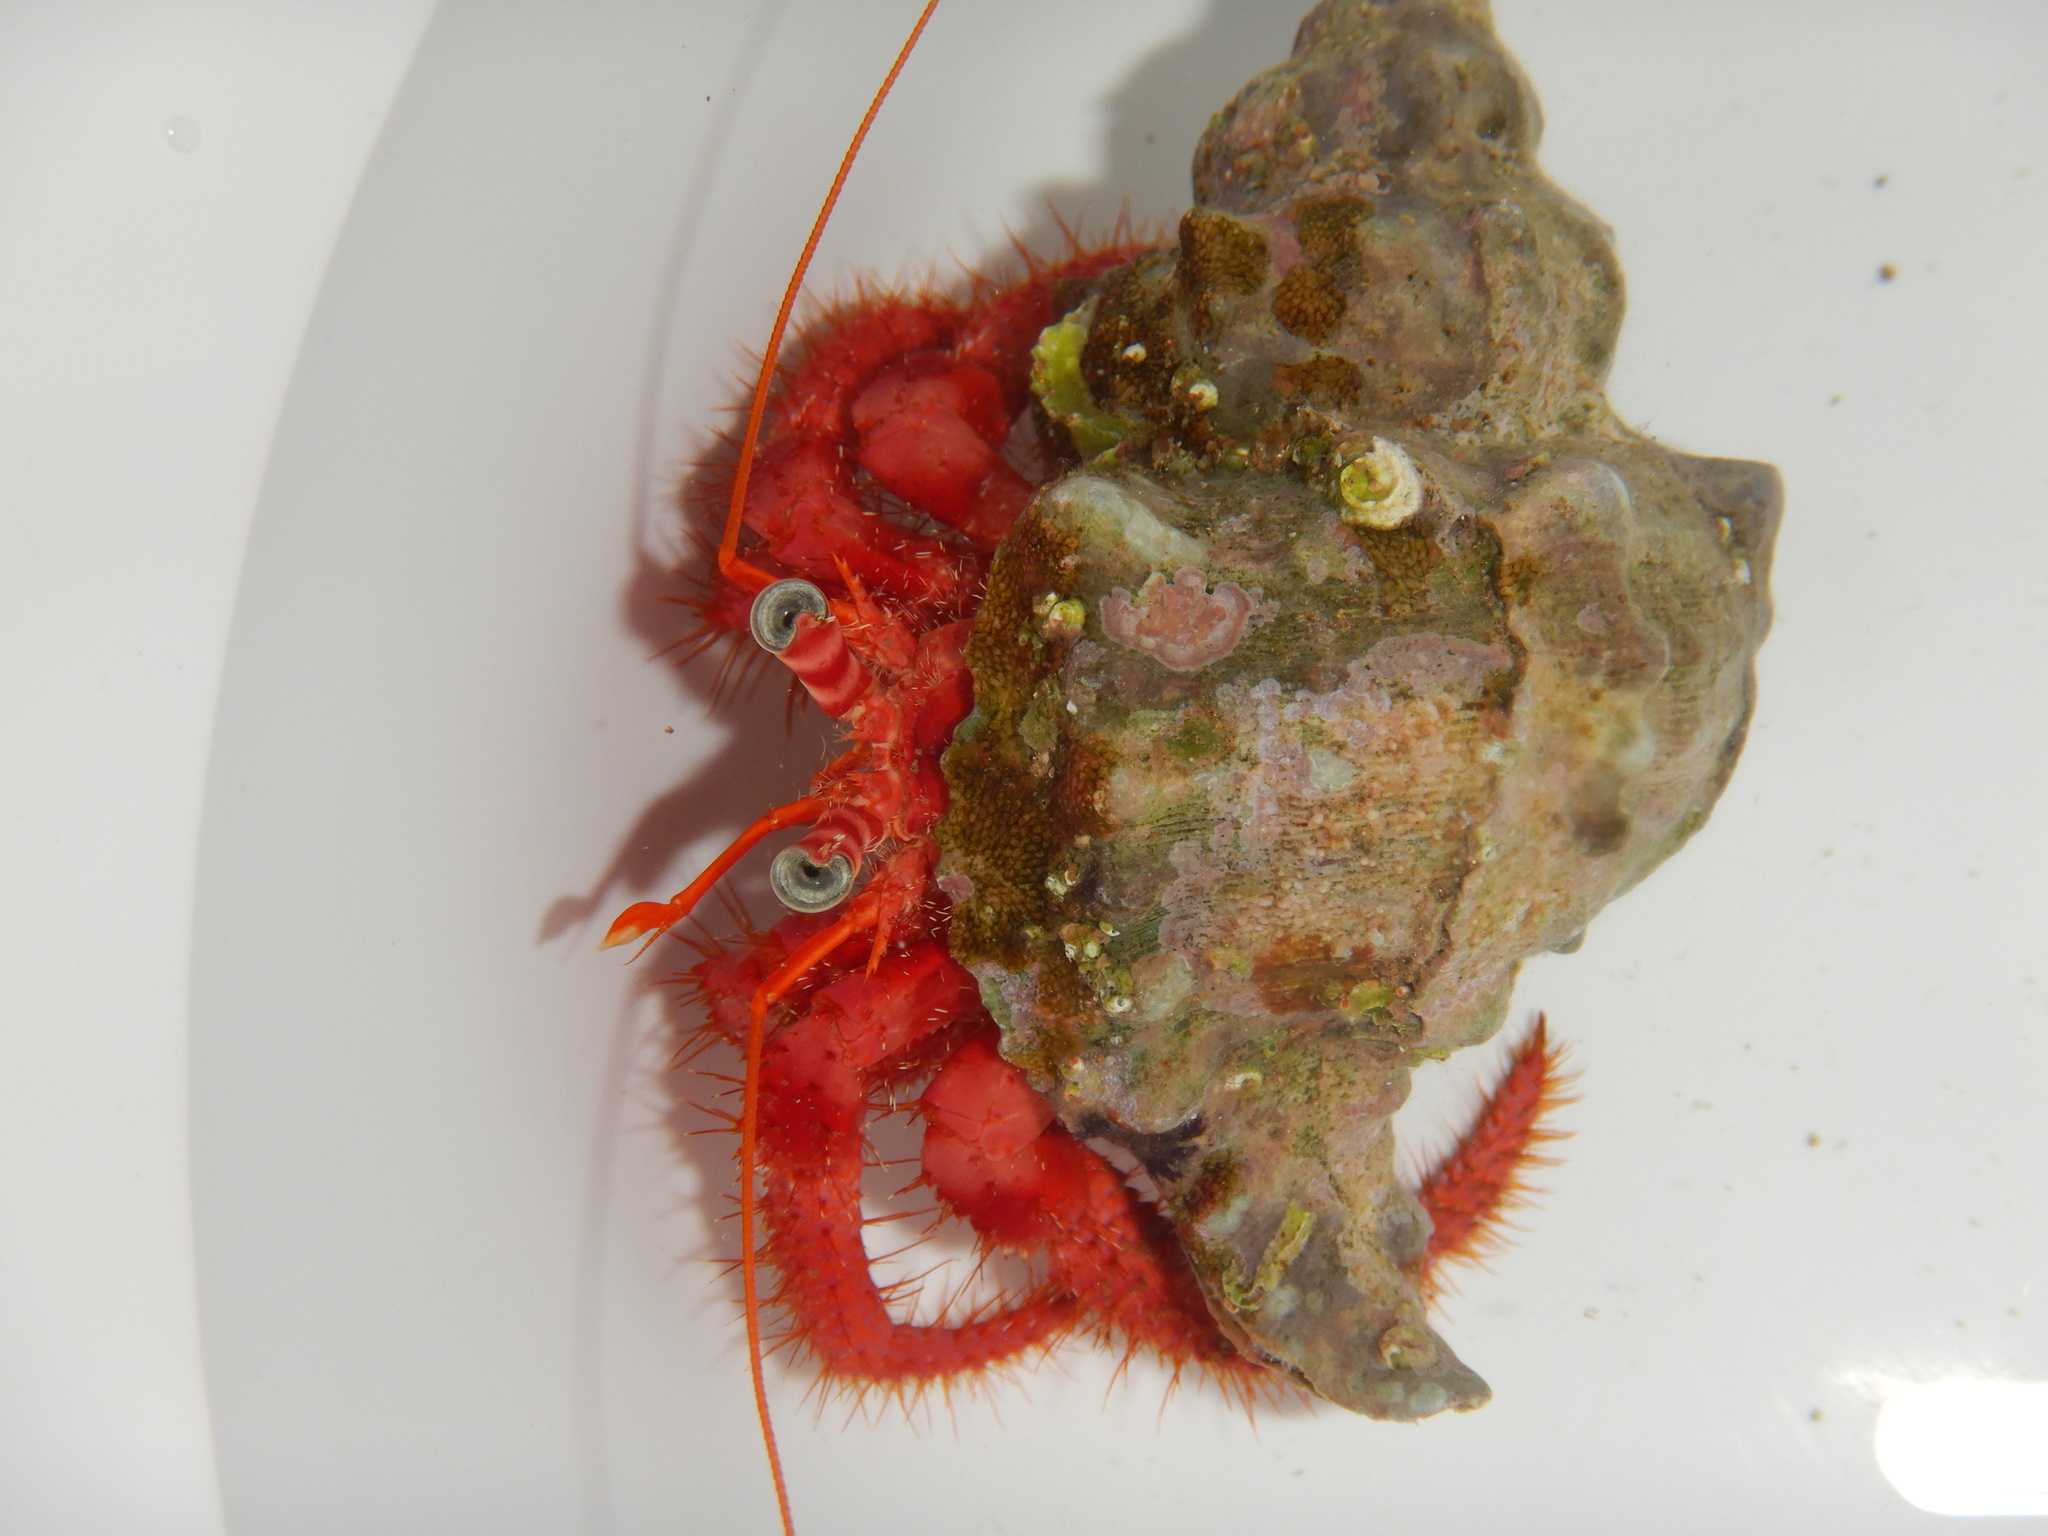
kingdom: Animalia
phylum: Arthropoda
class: Malacostraca
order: Decapoda
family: Diogenidae
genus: Dardanus
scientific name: Dardanus calidus
